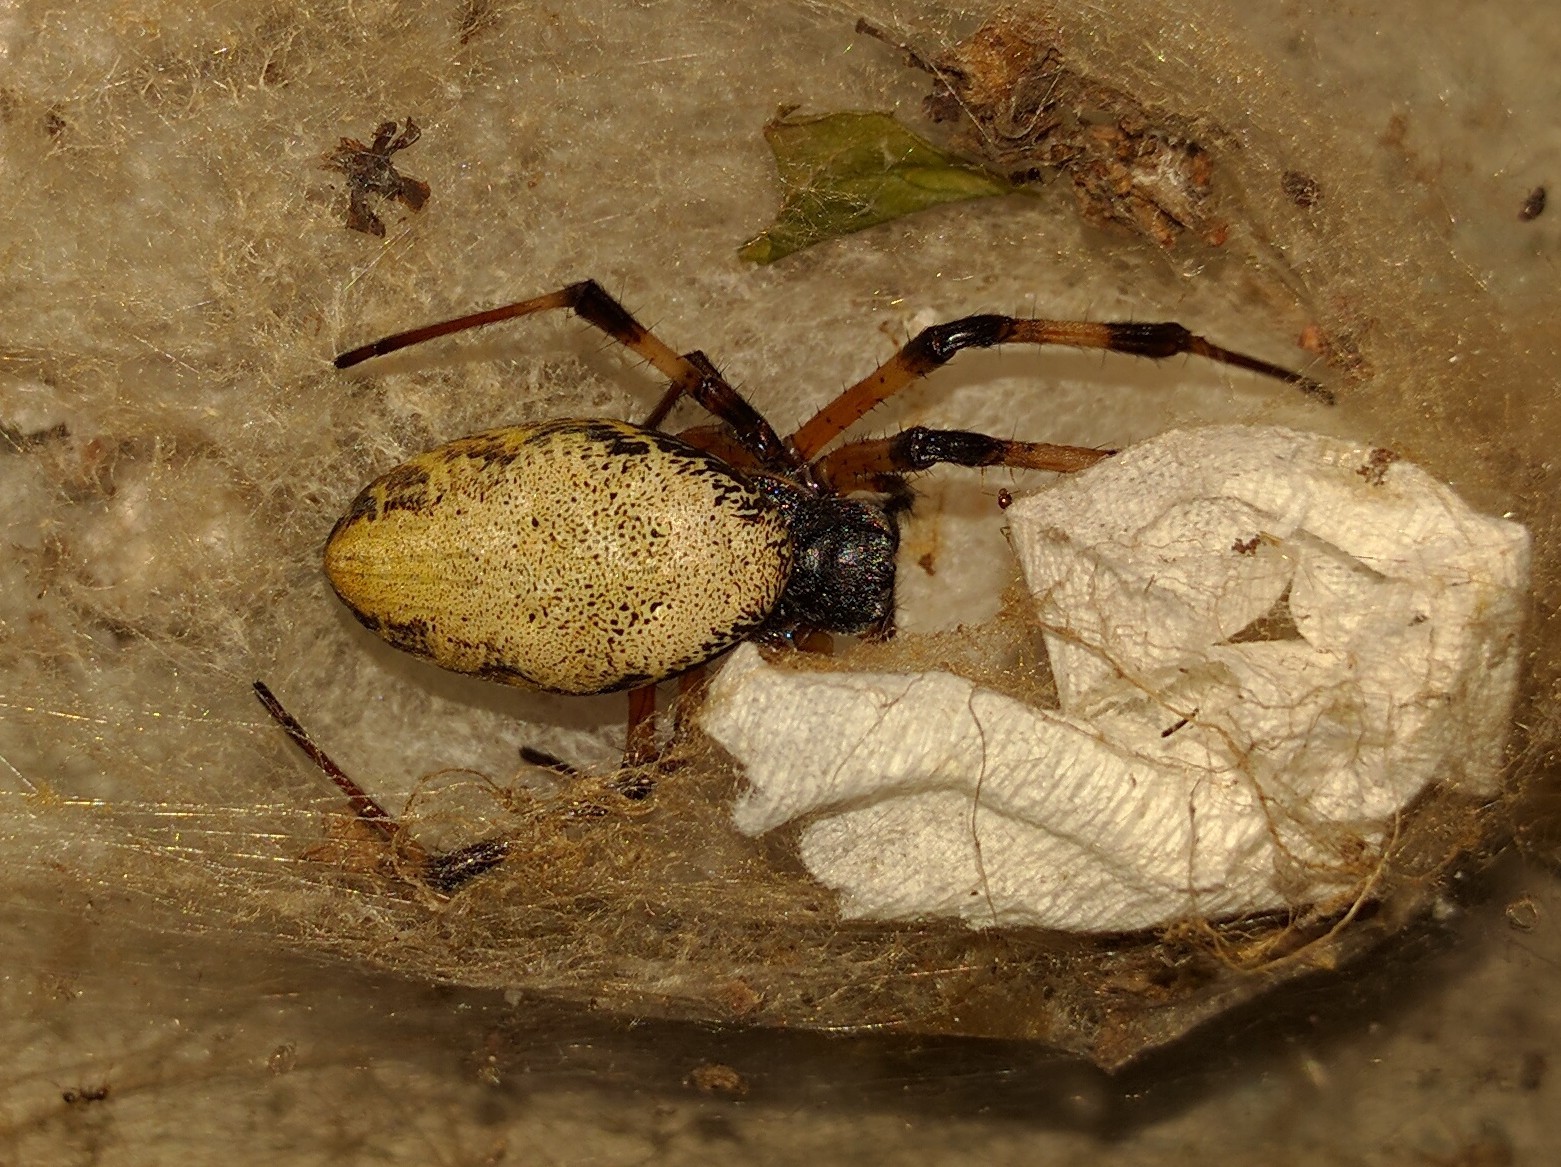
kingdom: Animalia
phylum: Arthropoda
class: Arachnida
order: Araneae
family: Araneidae
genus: Nephilingis
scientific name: Nephilingis cruentata
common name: African hermit spider
